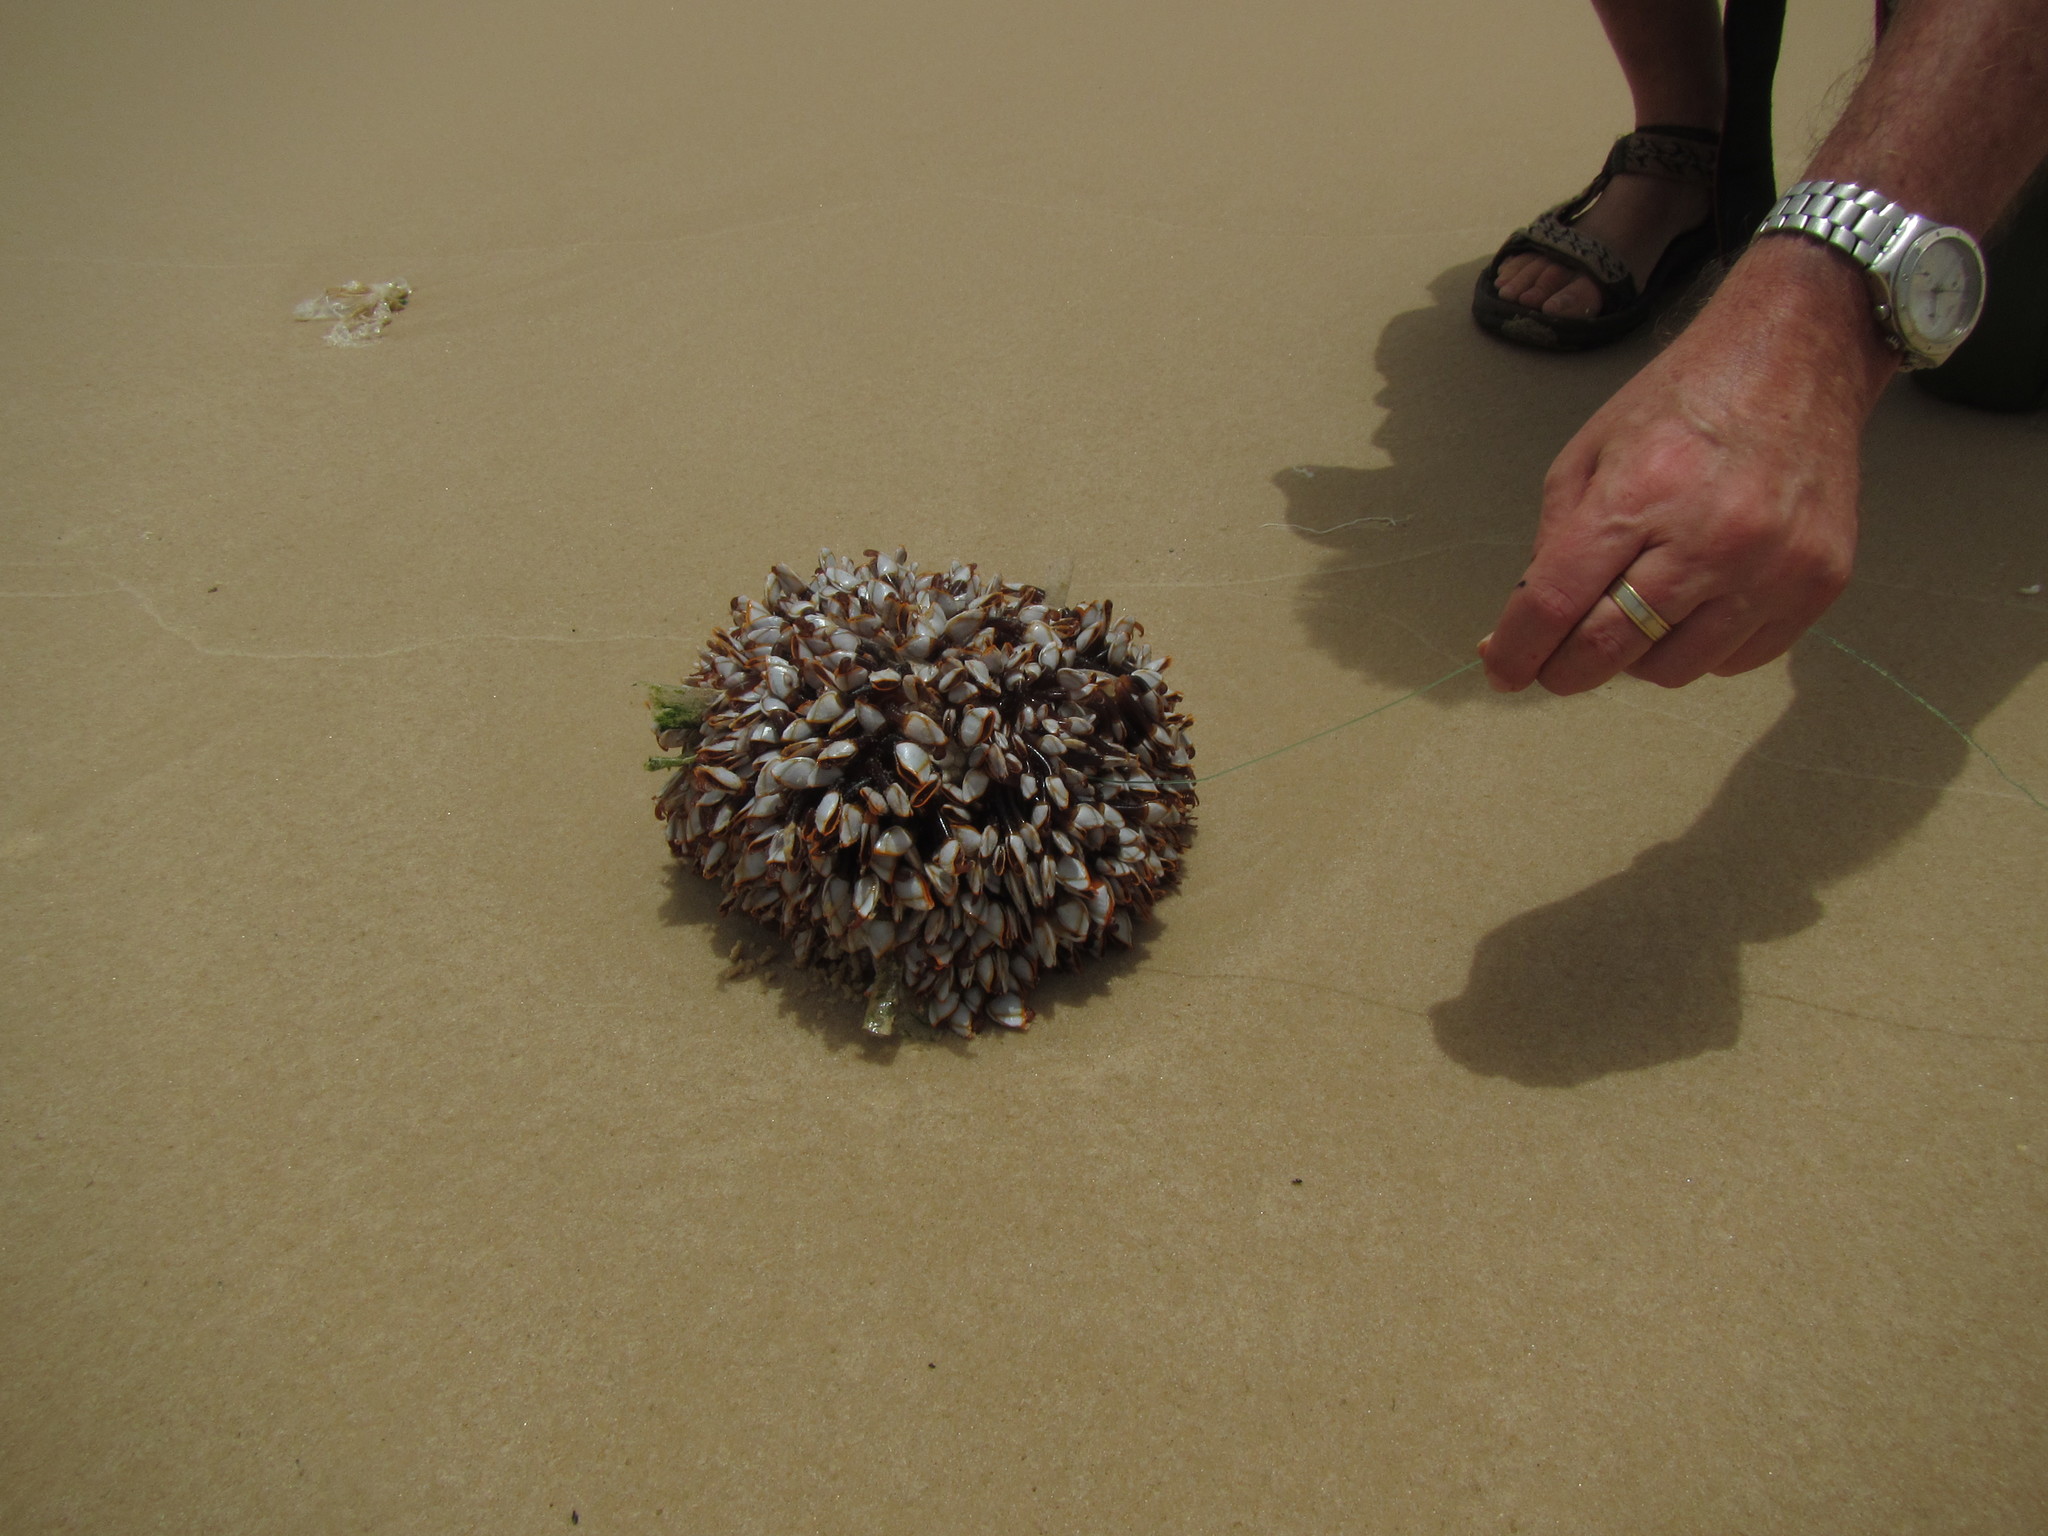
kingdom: Animalia
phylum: Arthropoda
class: Maxillopoda
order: Pedunculata
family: Lepadidae
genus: Lepas
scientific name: Lepas anserifera
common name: Goose barnacle
